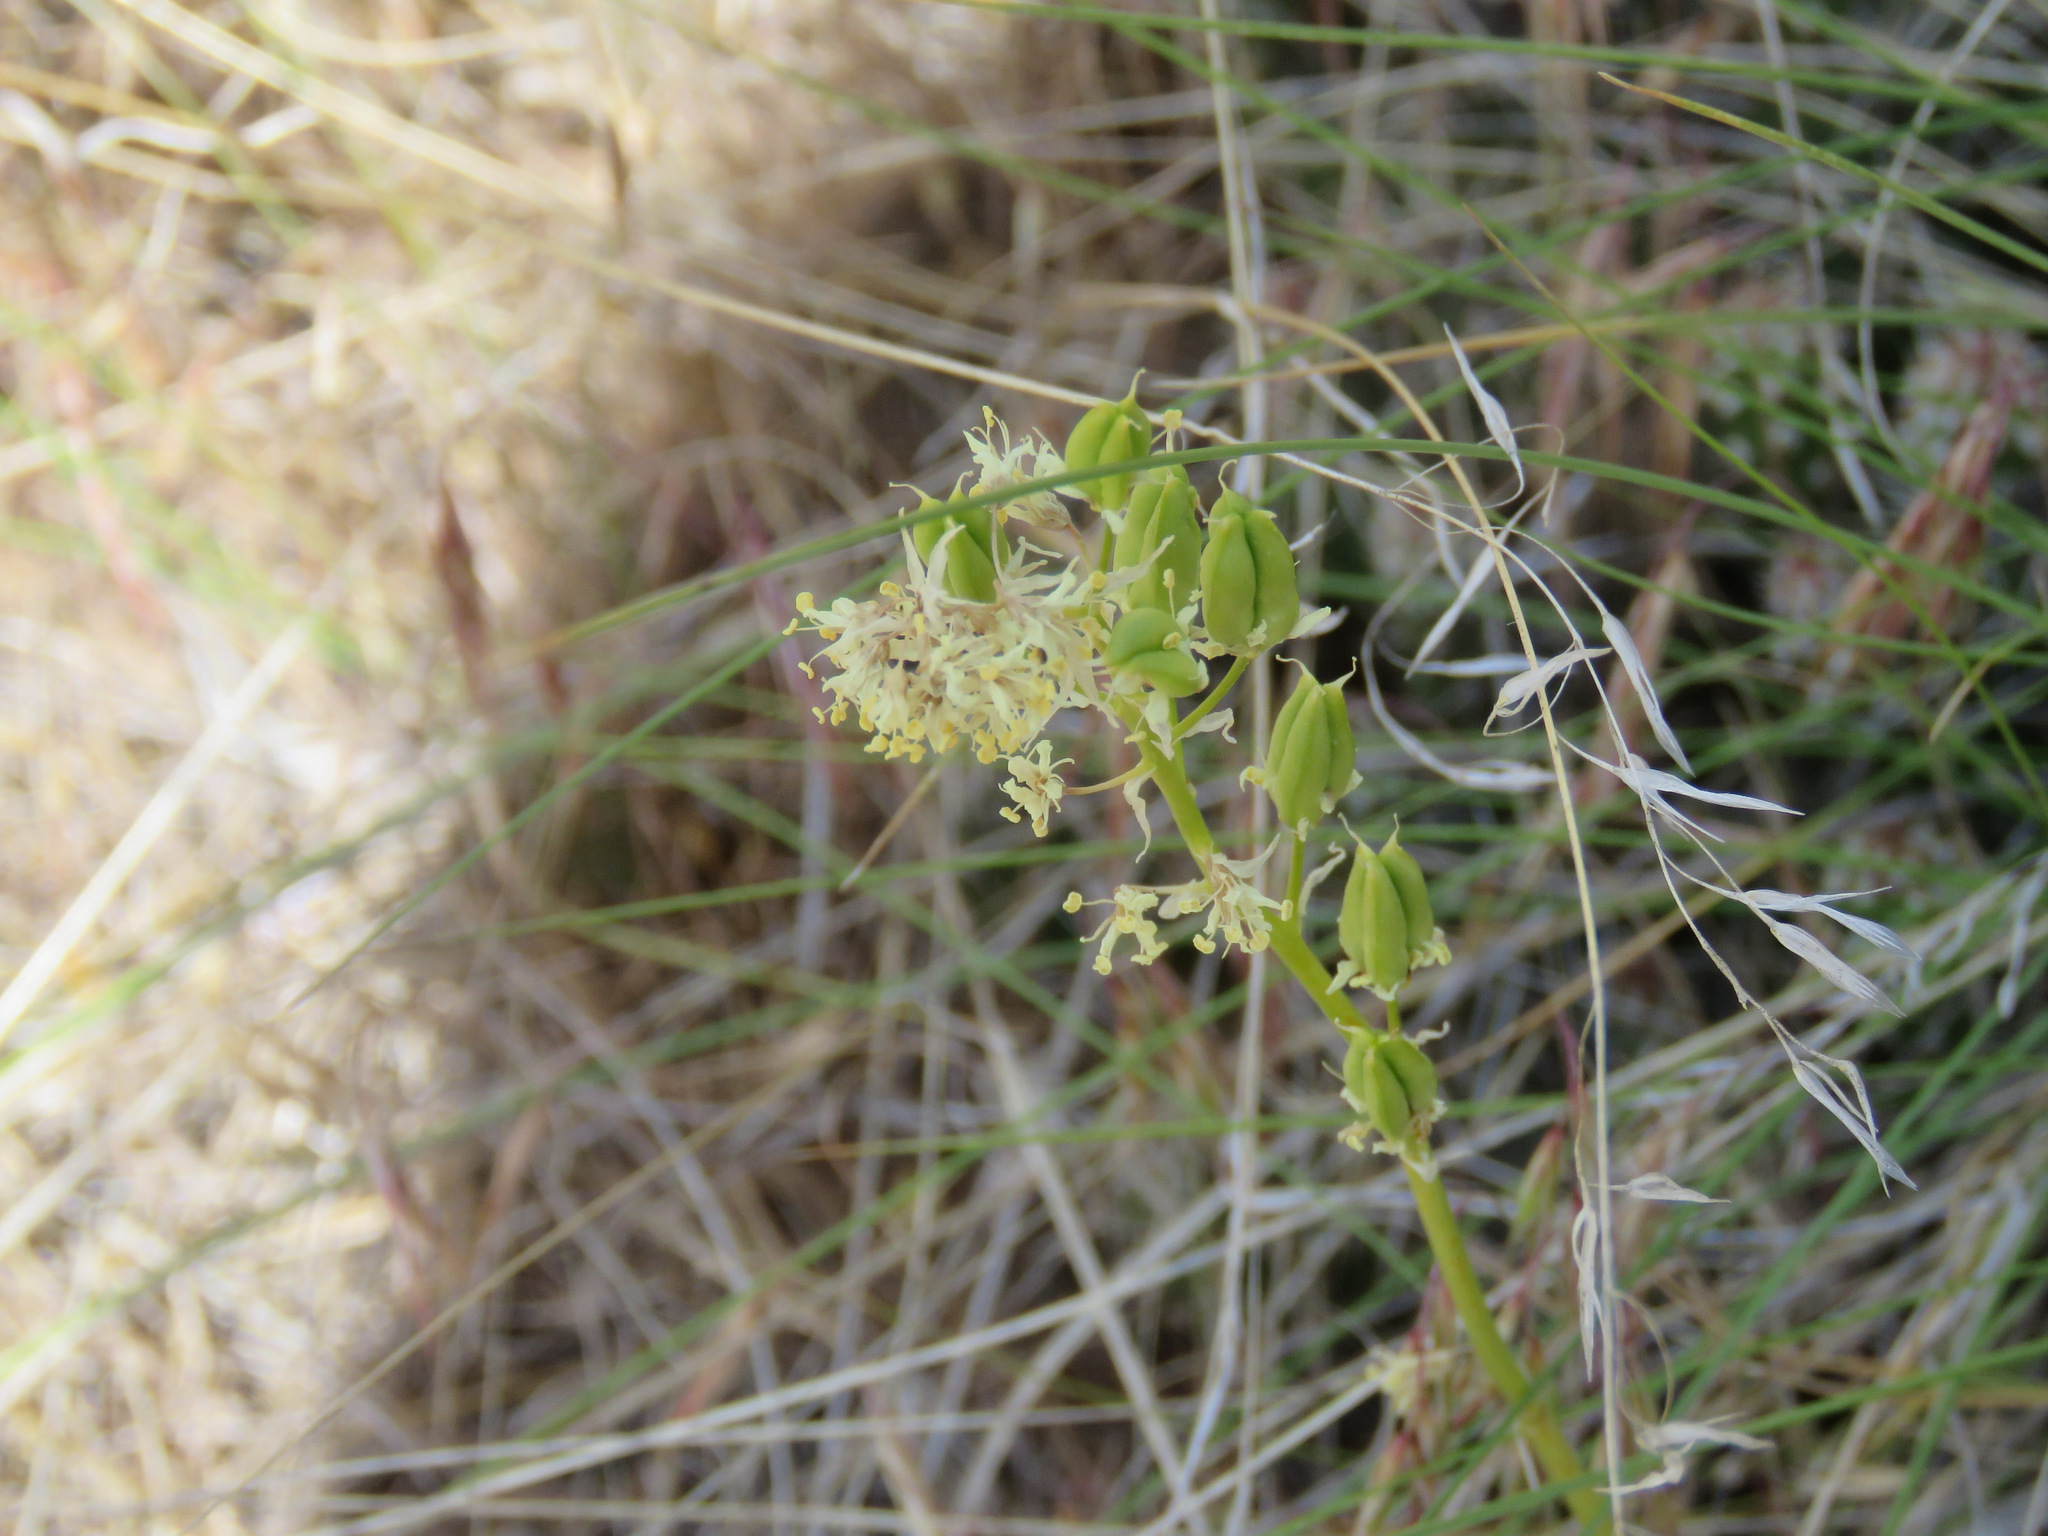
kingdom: Plantae
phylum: Tracheophyta
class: Liliopsida
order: Liliales
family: Melanthiaceae
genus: Toxicoscordion
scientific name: Toxicoscordion venenosum
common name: Meadow death camas
